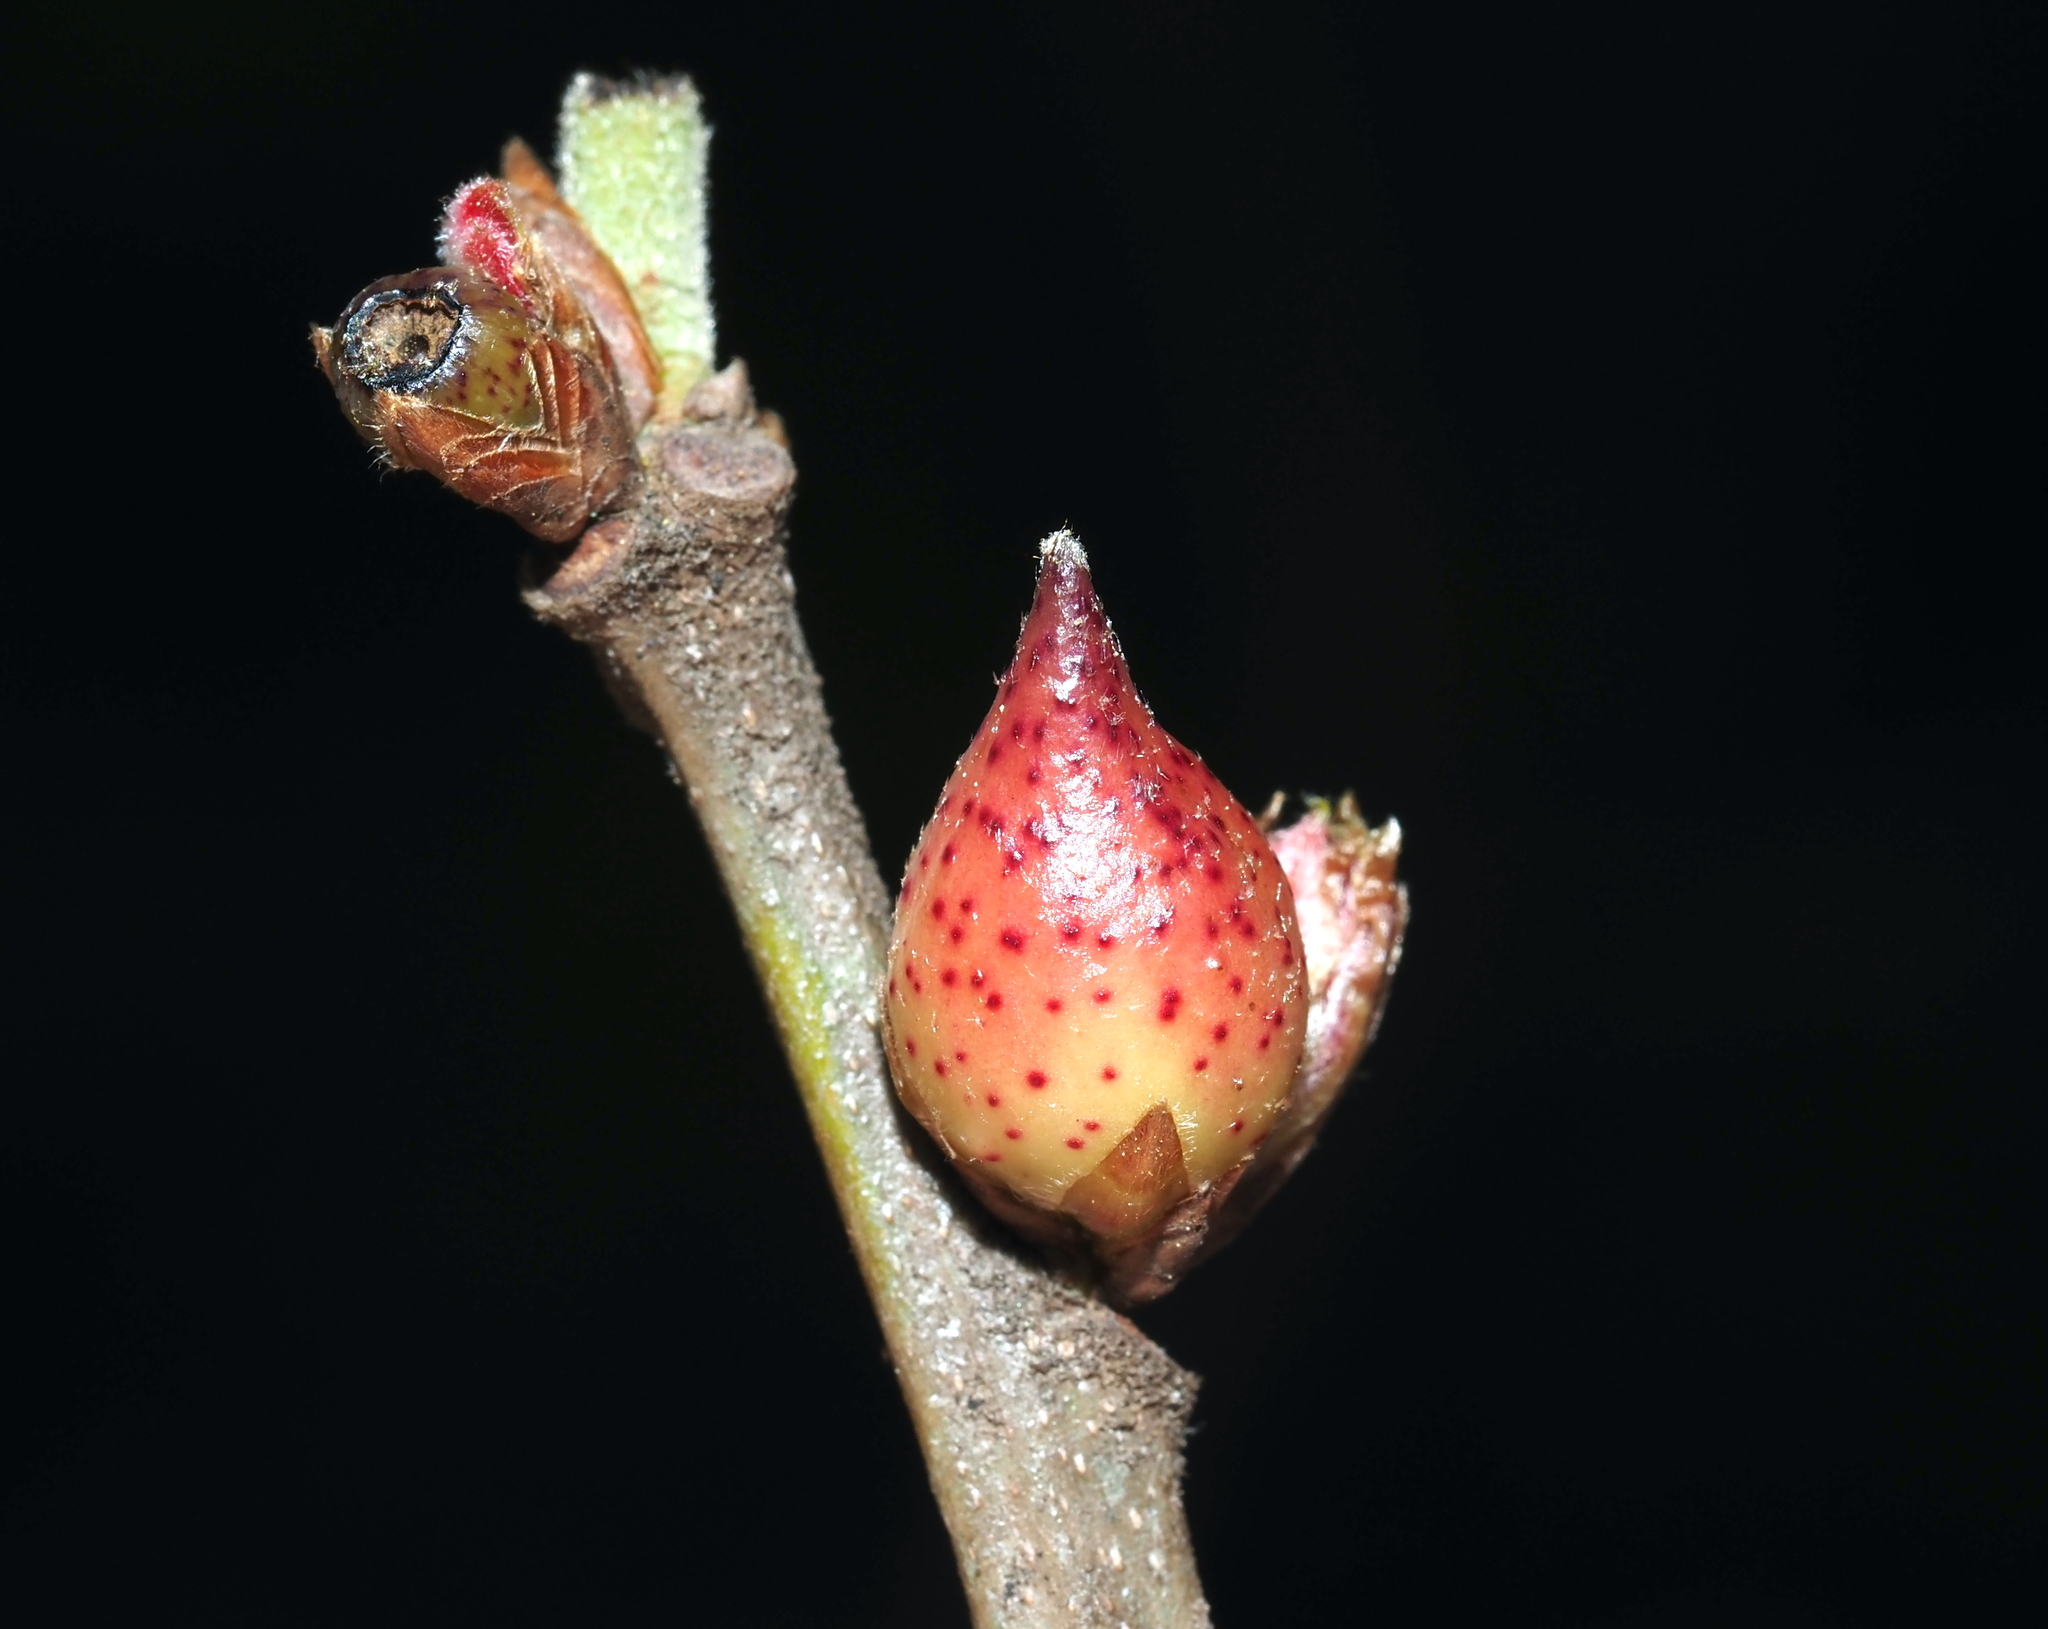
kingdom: Animalia
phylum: Arthropoda
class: Insecta
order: Hymenoptera
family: Cynipidae
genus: Amphibolips
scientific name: Amphibolips
